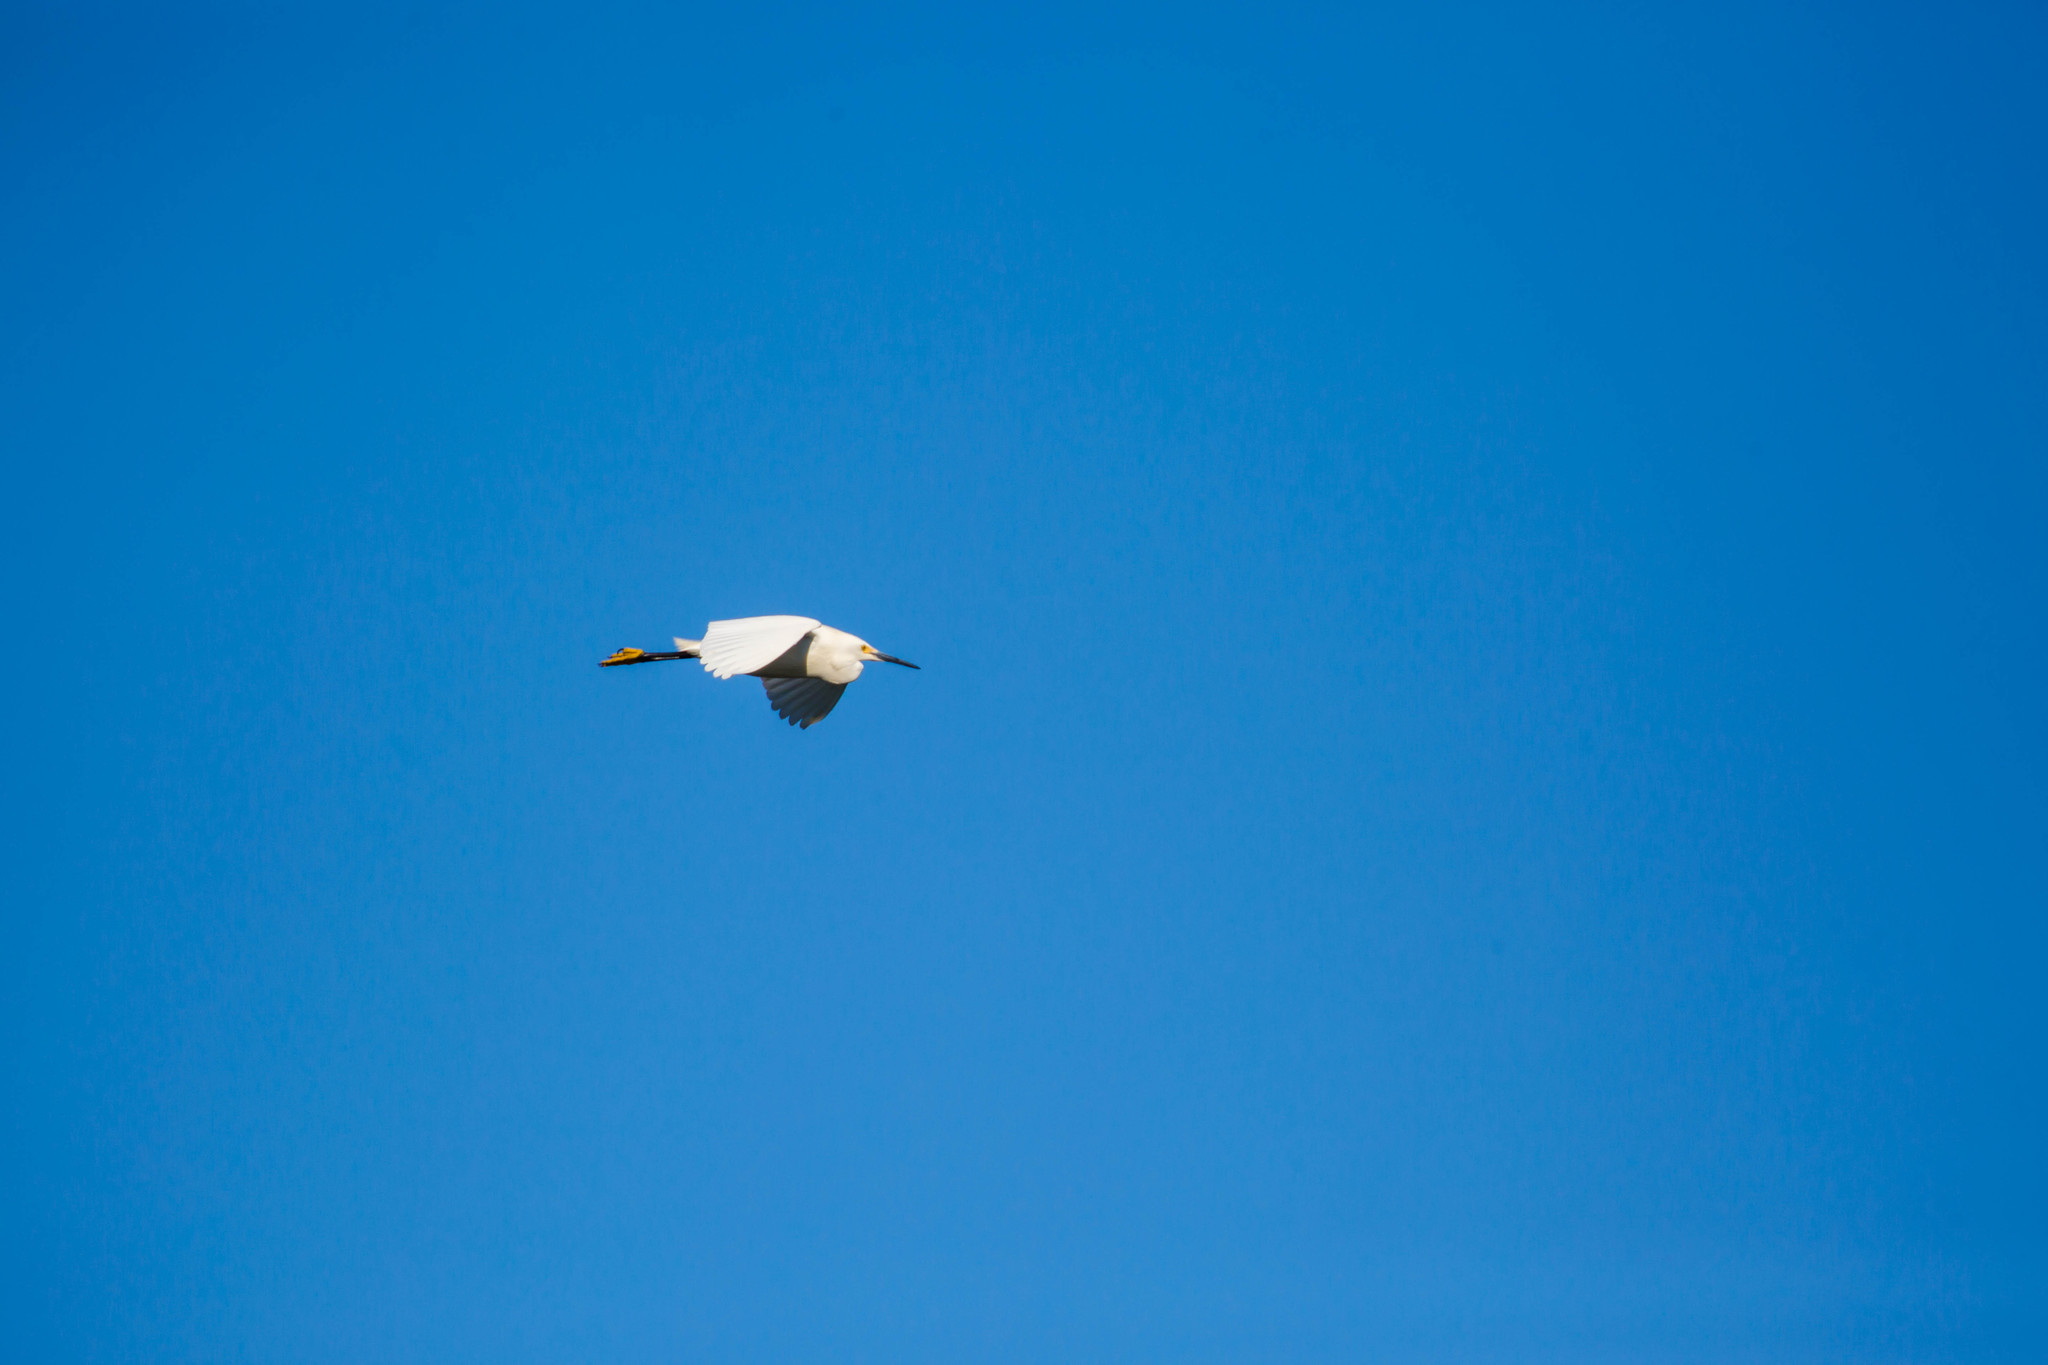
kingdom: Animalia
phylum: Chordata
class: Aves
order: Pelecaniformes
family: Ardeidae
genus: Egretta
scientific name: Egretta thula
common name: Snowy egret
